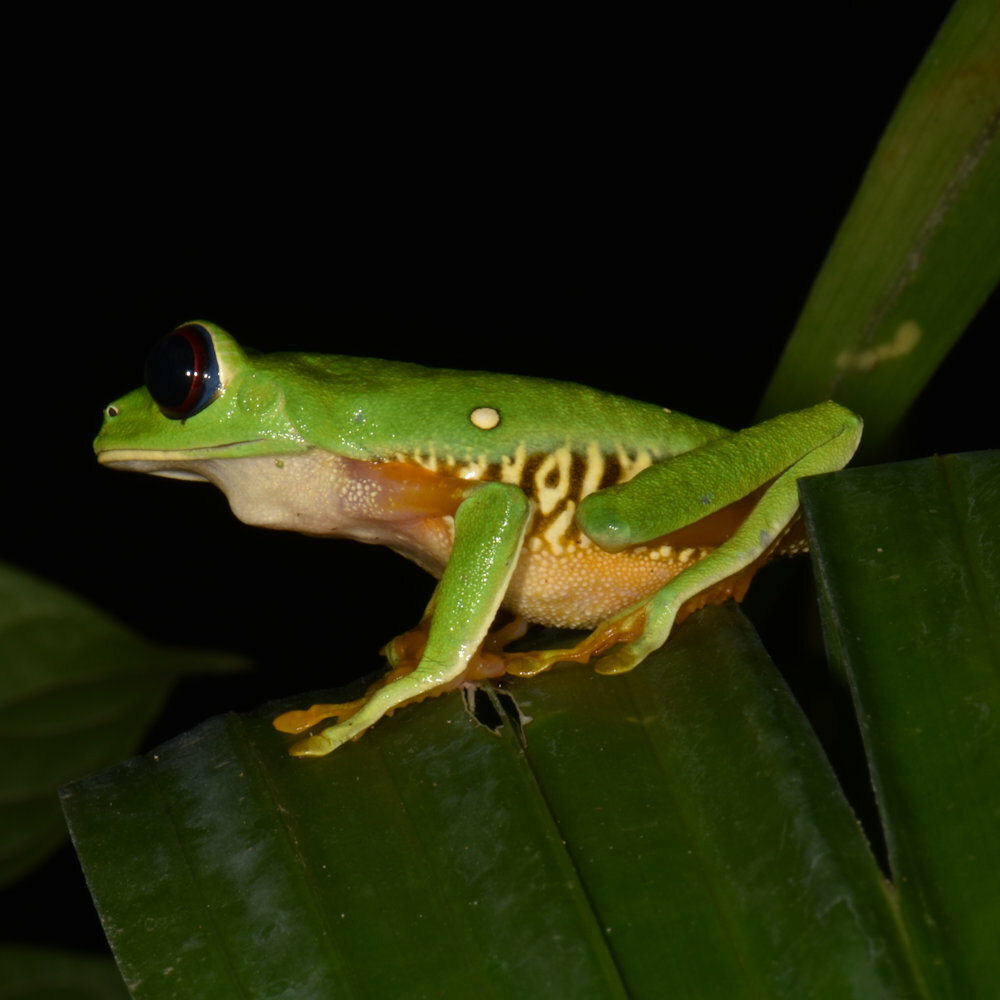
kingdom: Animalia
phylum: Chordata
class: Amphibia
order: Anura
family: Phyllomedusidae
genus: Agalychnis
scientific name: Agalychnis callidryas
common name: Red-eyed treefrog
